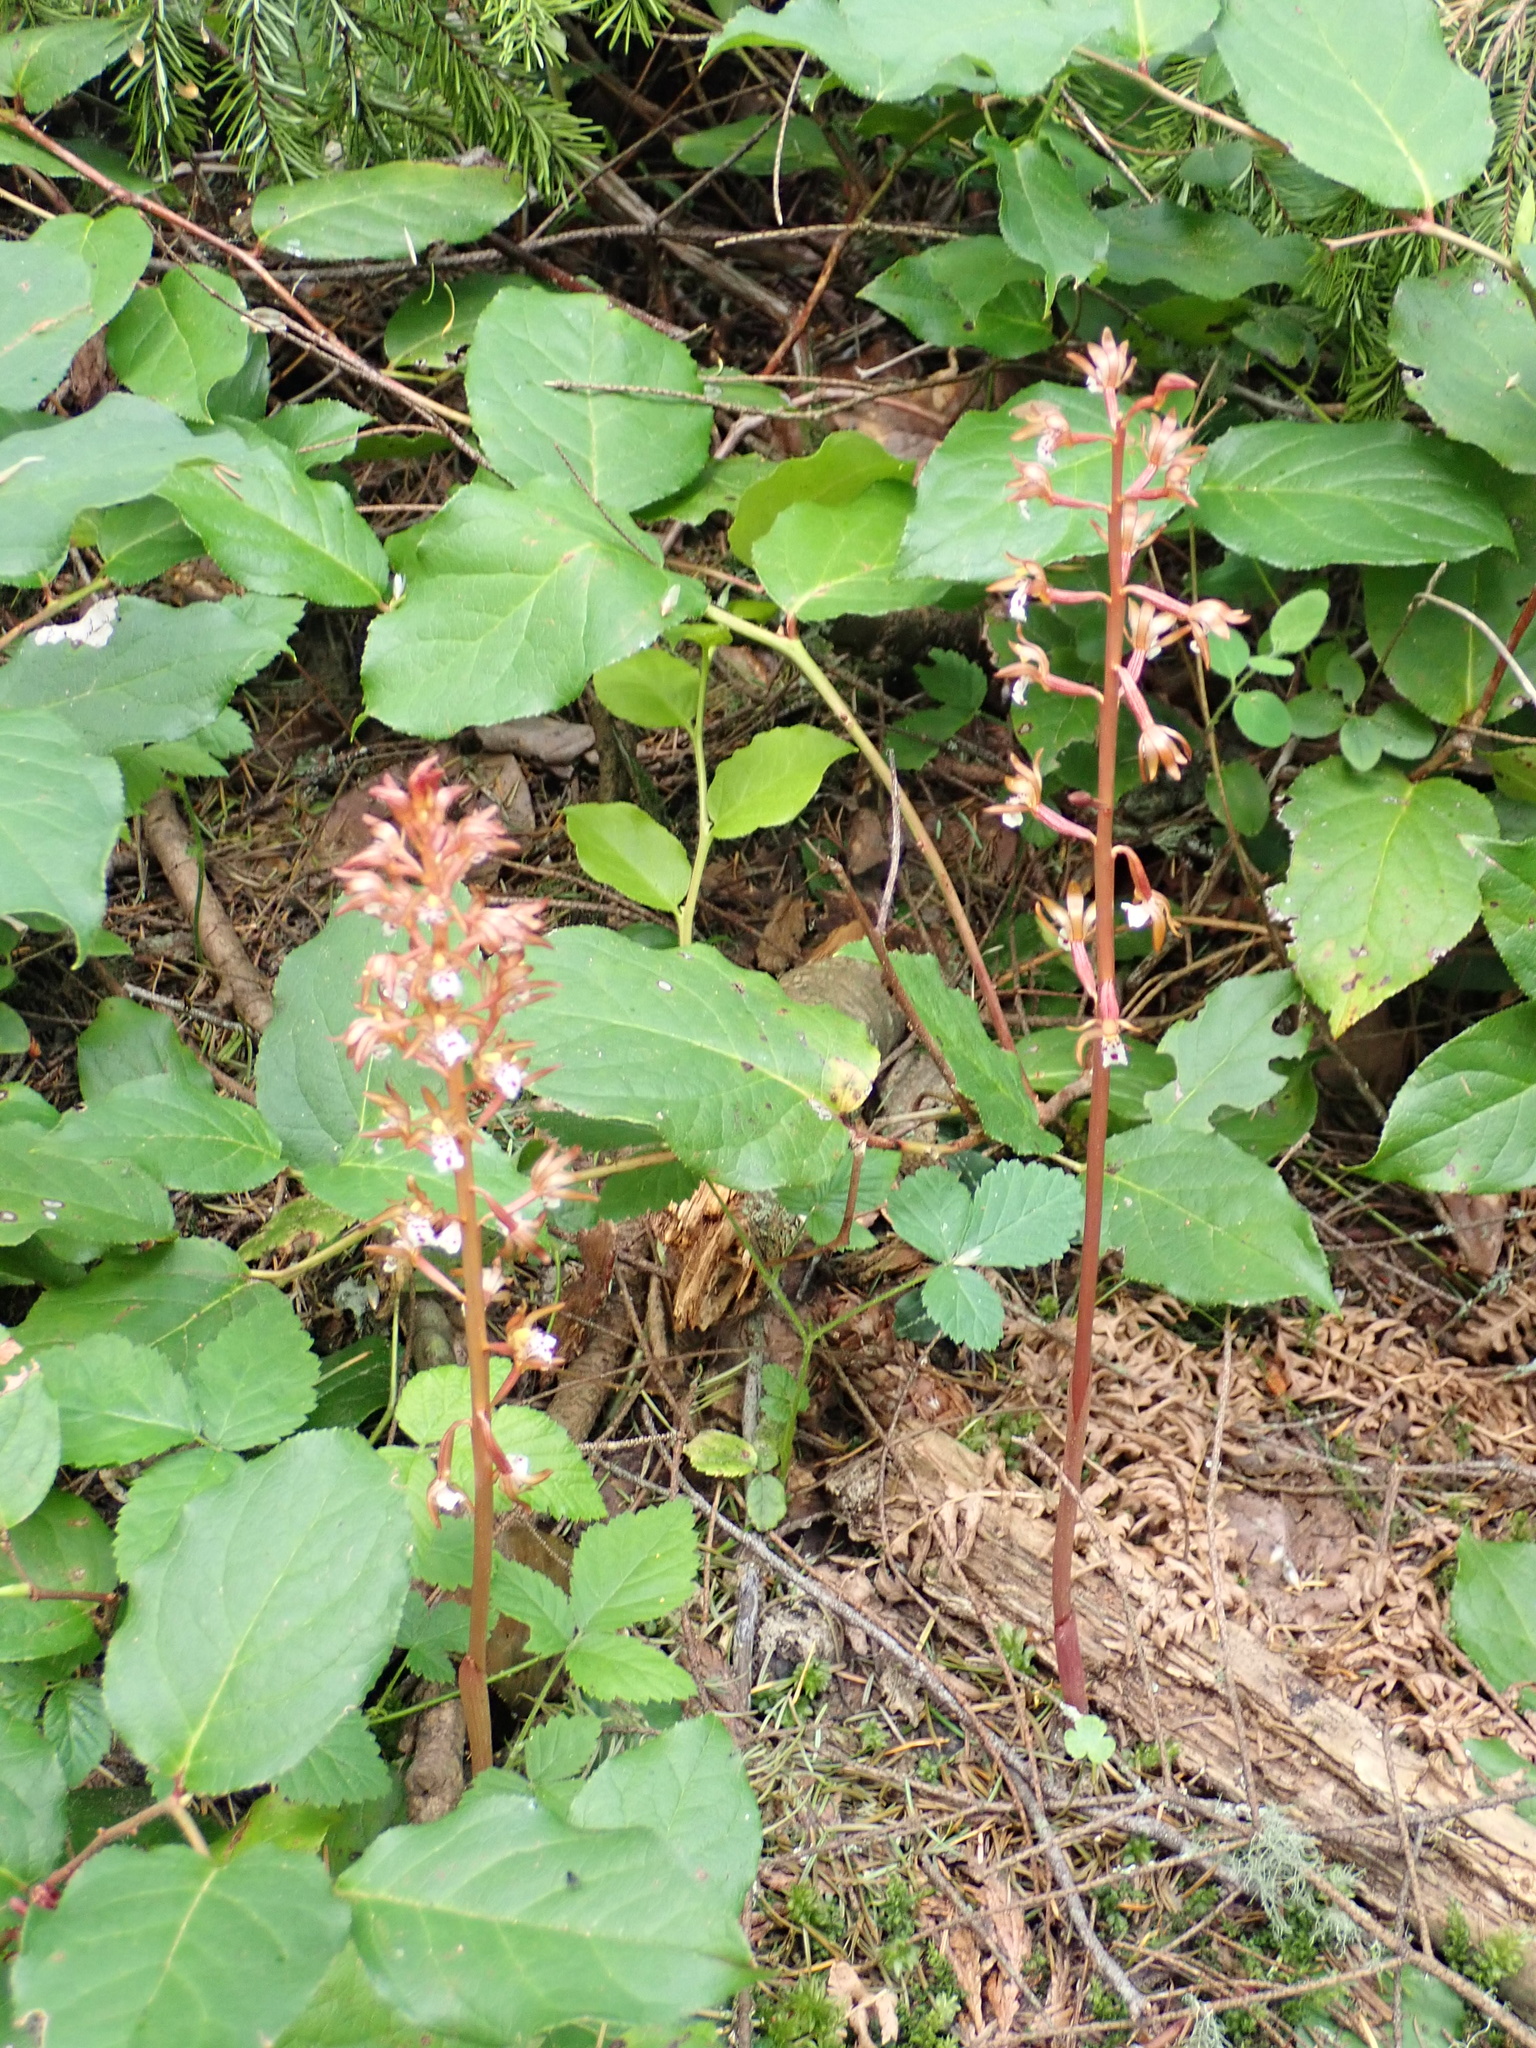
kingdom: Plantae
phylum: Tracheophyta
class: Liliopsida
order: Asparagales
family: Orchidaceae
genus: Corallorhiza
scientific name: Corallorhiza maculata
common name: Spotted coralroot
